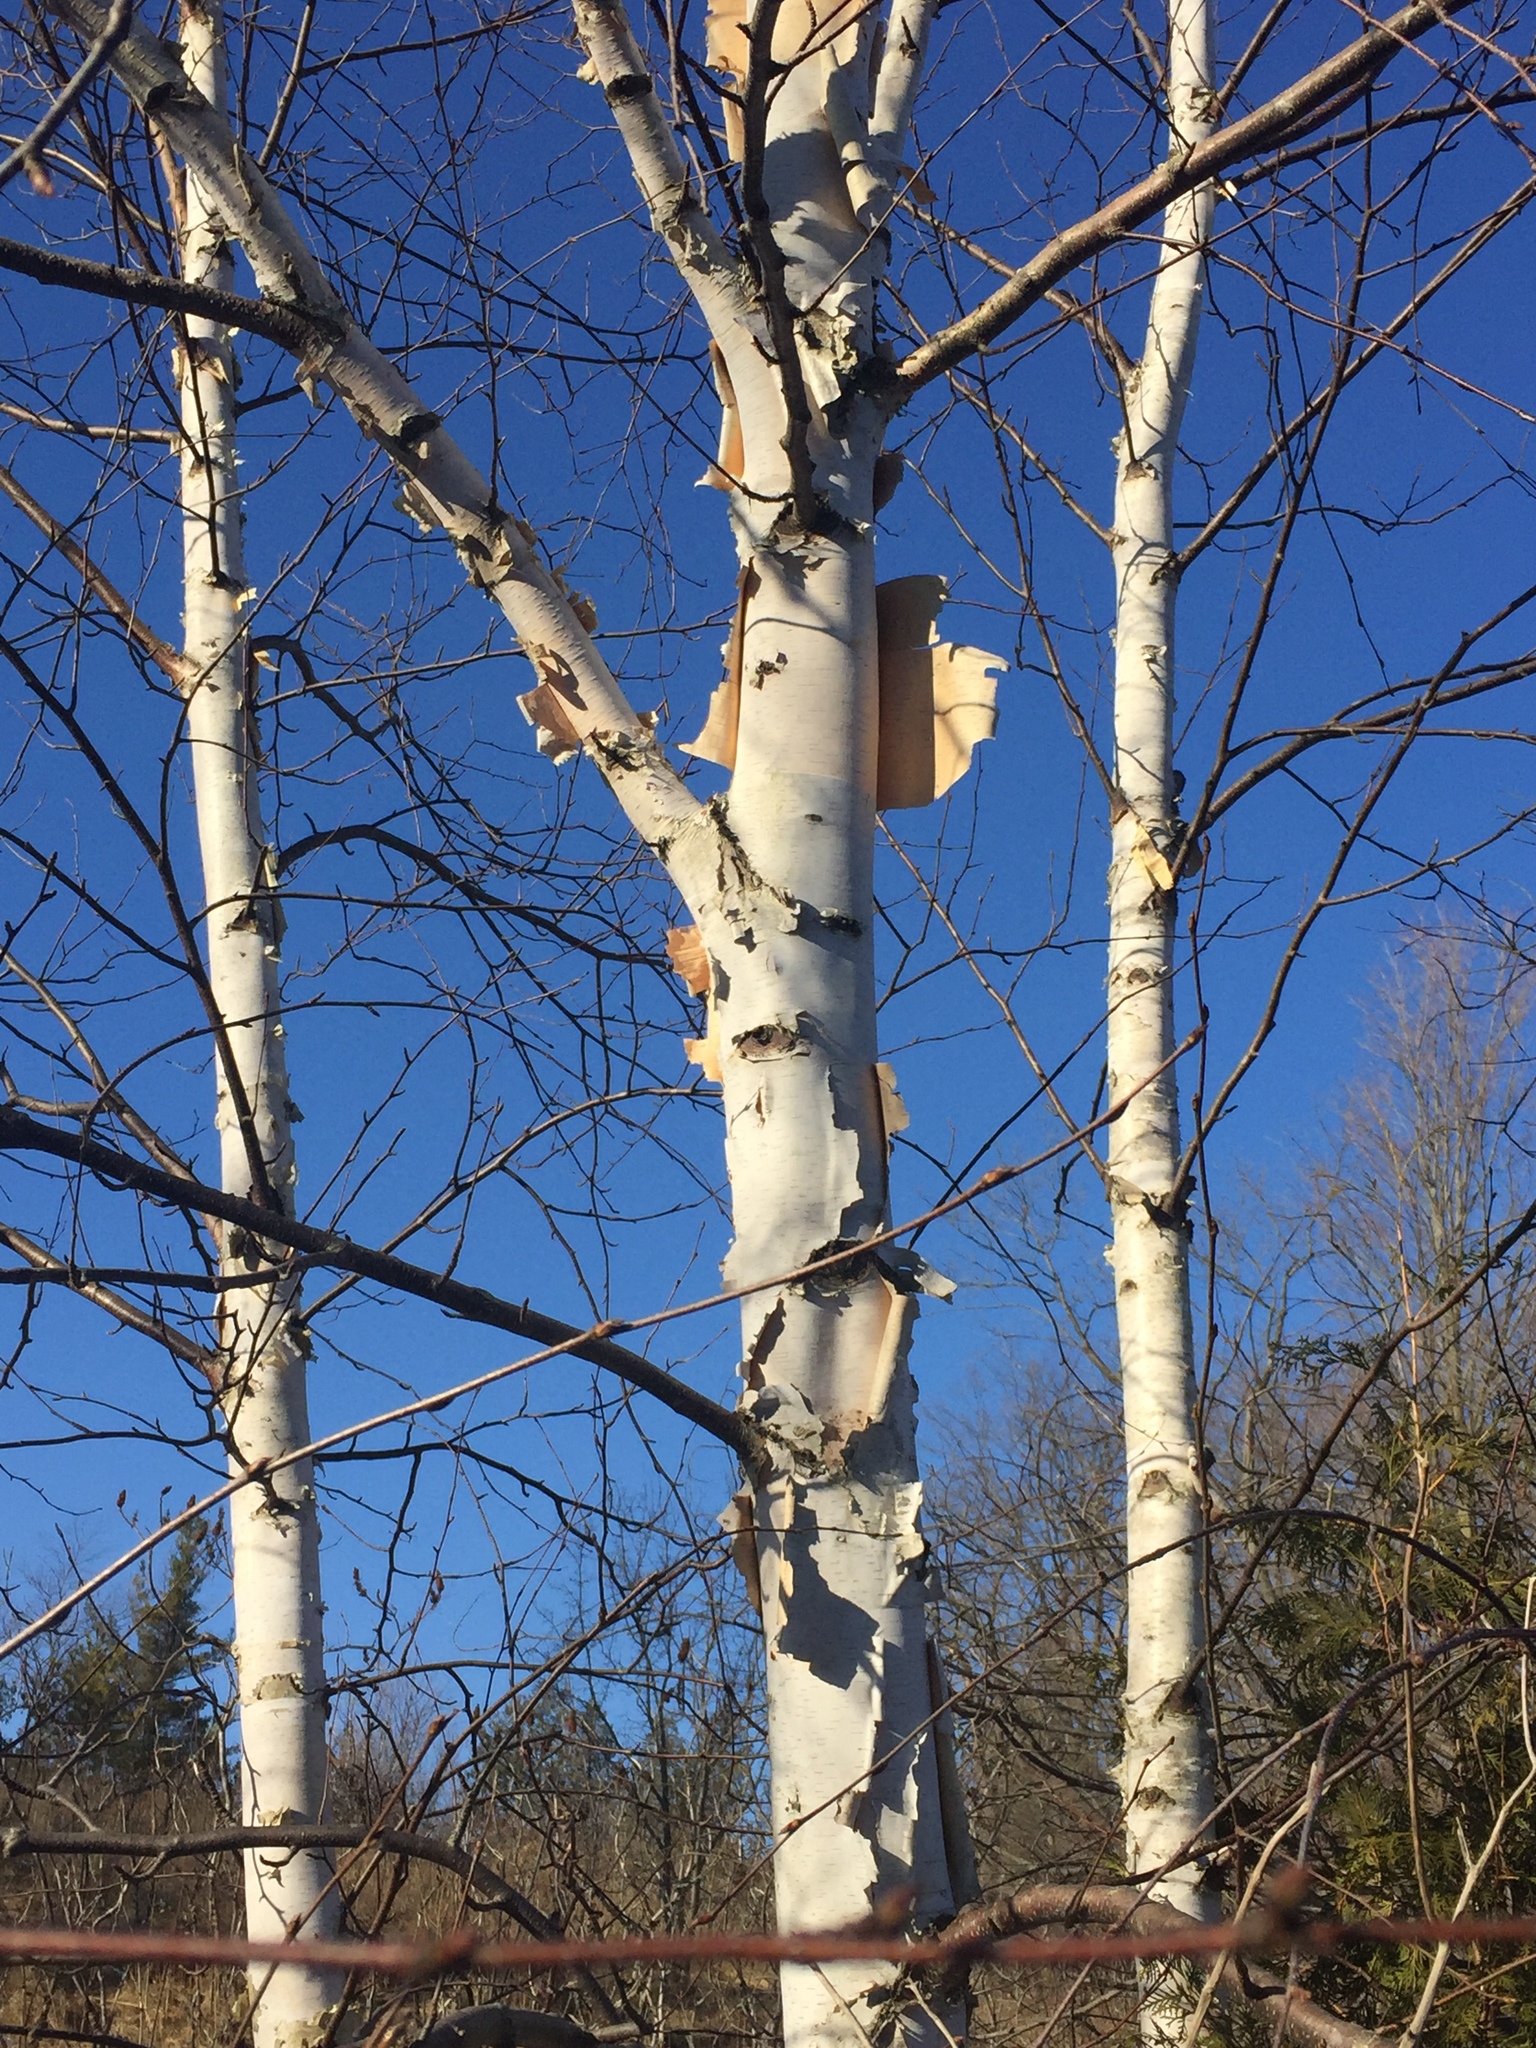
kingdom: Plantae
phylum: Tracheophyta
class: Magnoliopsida
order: Fagales
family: Betulaceae
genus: Betula
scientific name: Betula papyrifera
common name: Paper birch
